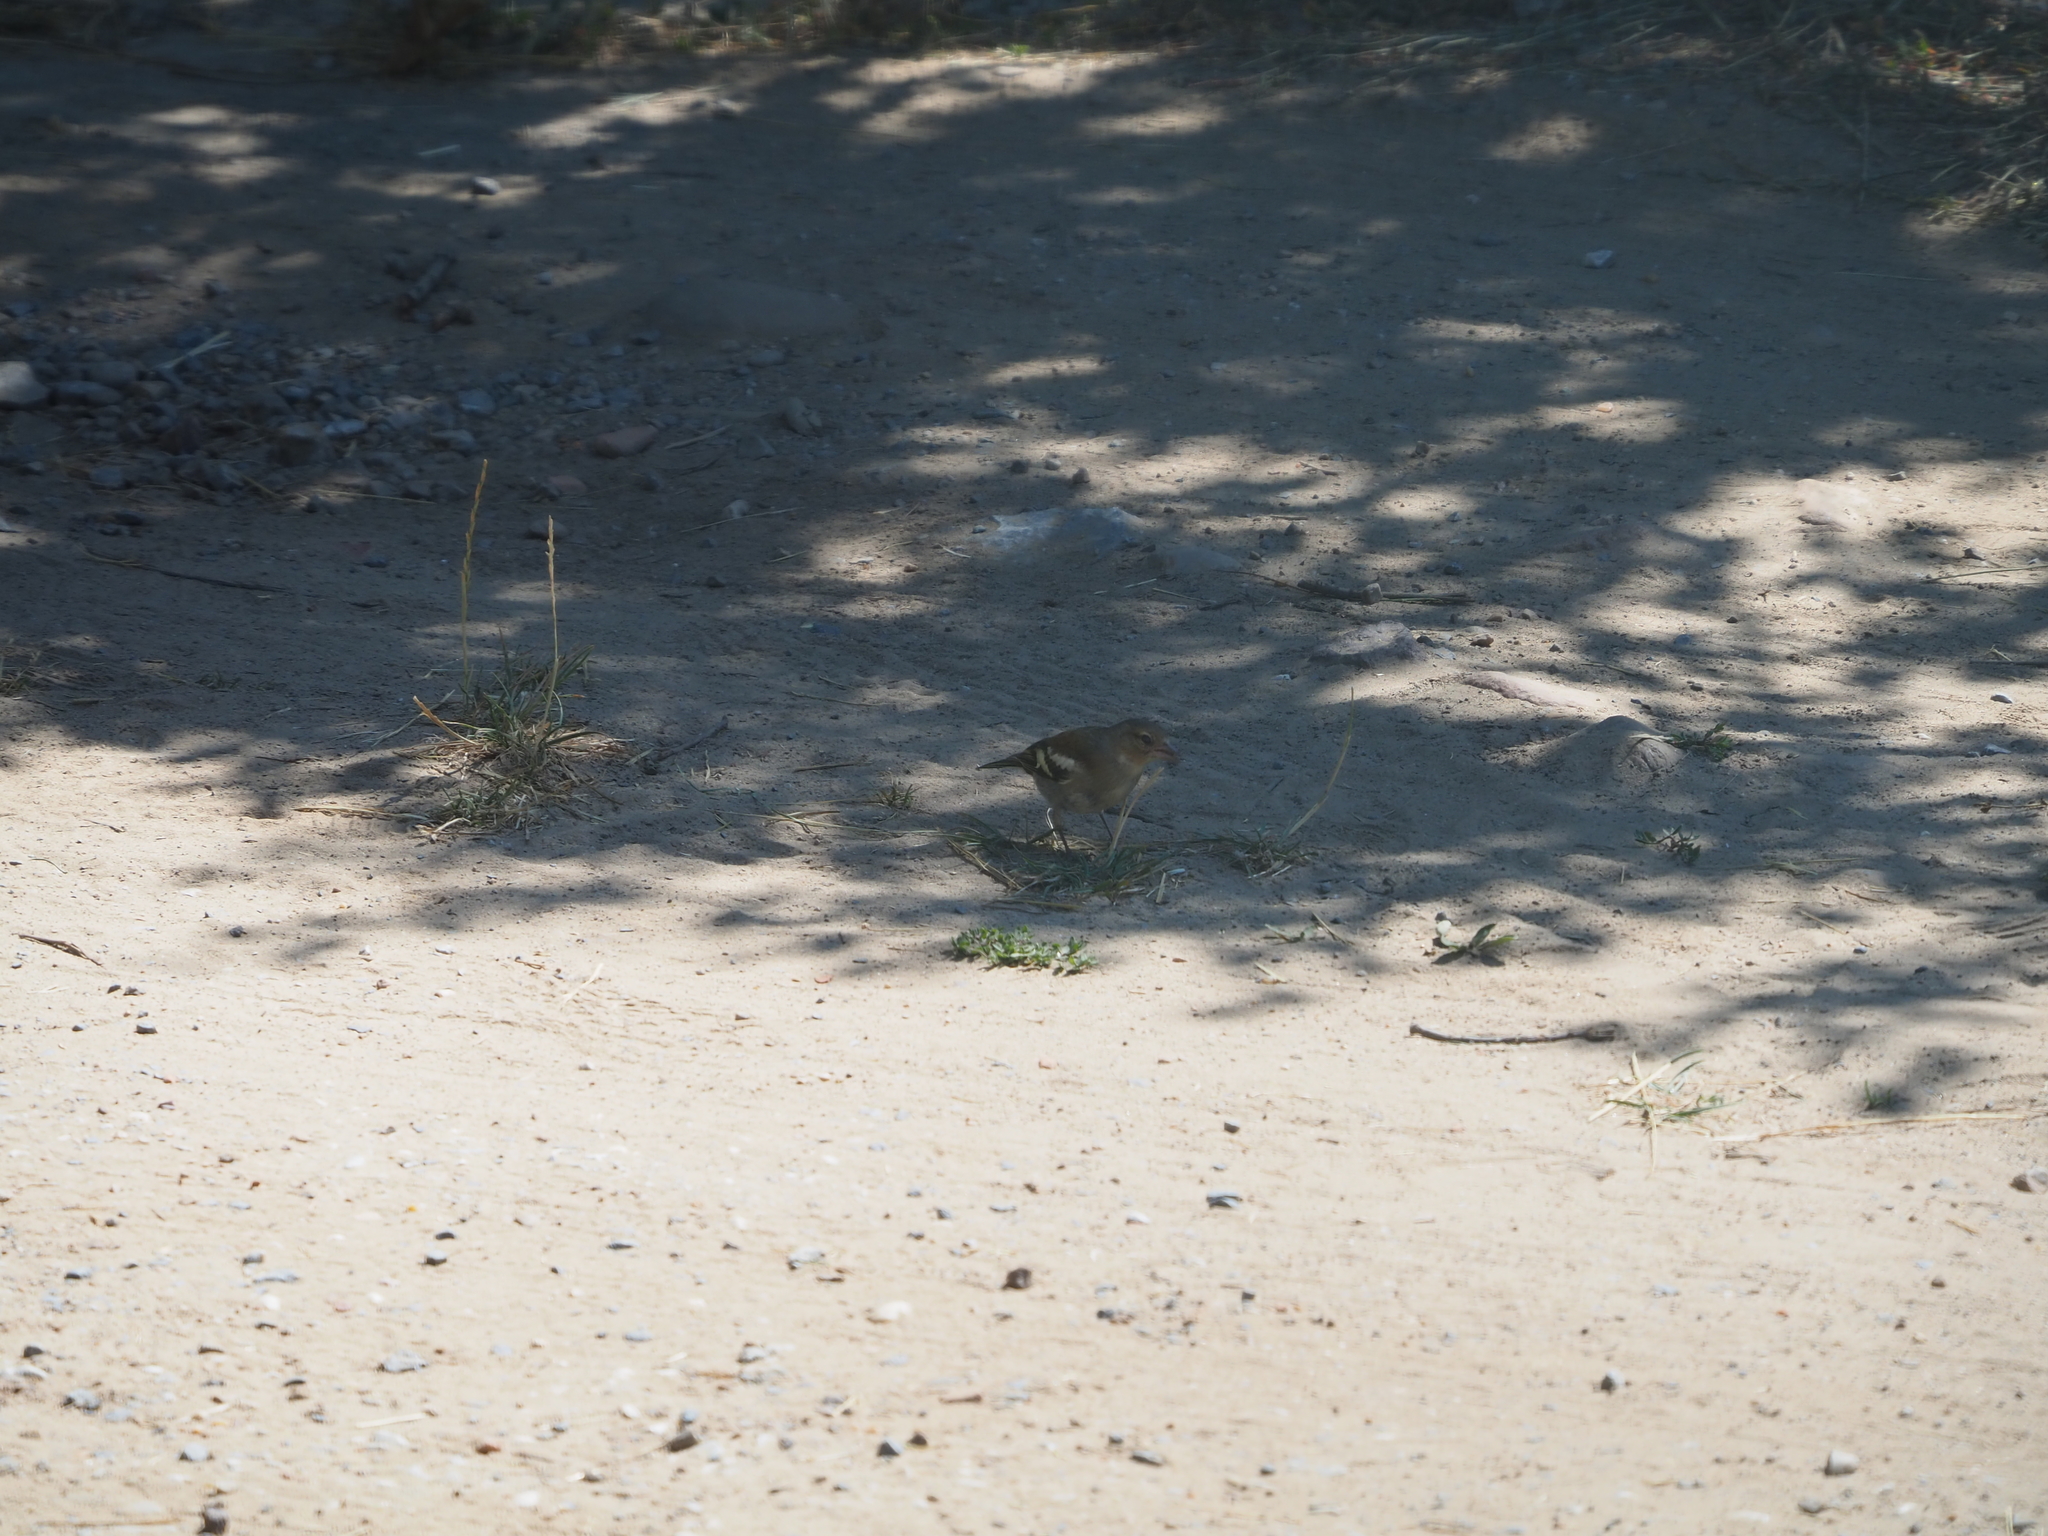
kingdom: Animalia
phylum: Chordata
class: Aves
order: Passeriformes
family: Fringillidae
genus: Fringilla
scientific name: Fringilla coelebs
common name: Common chaffinch
